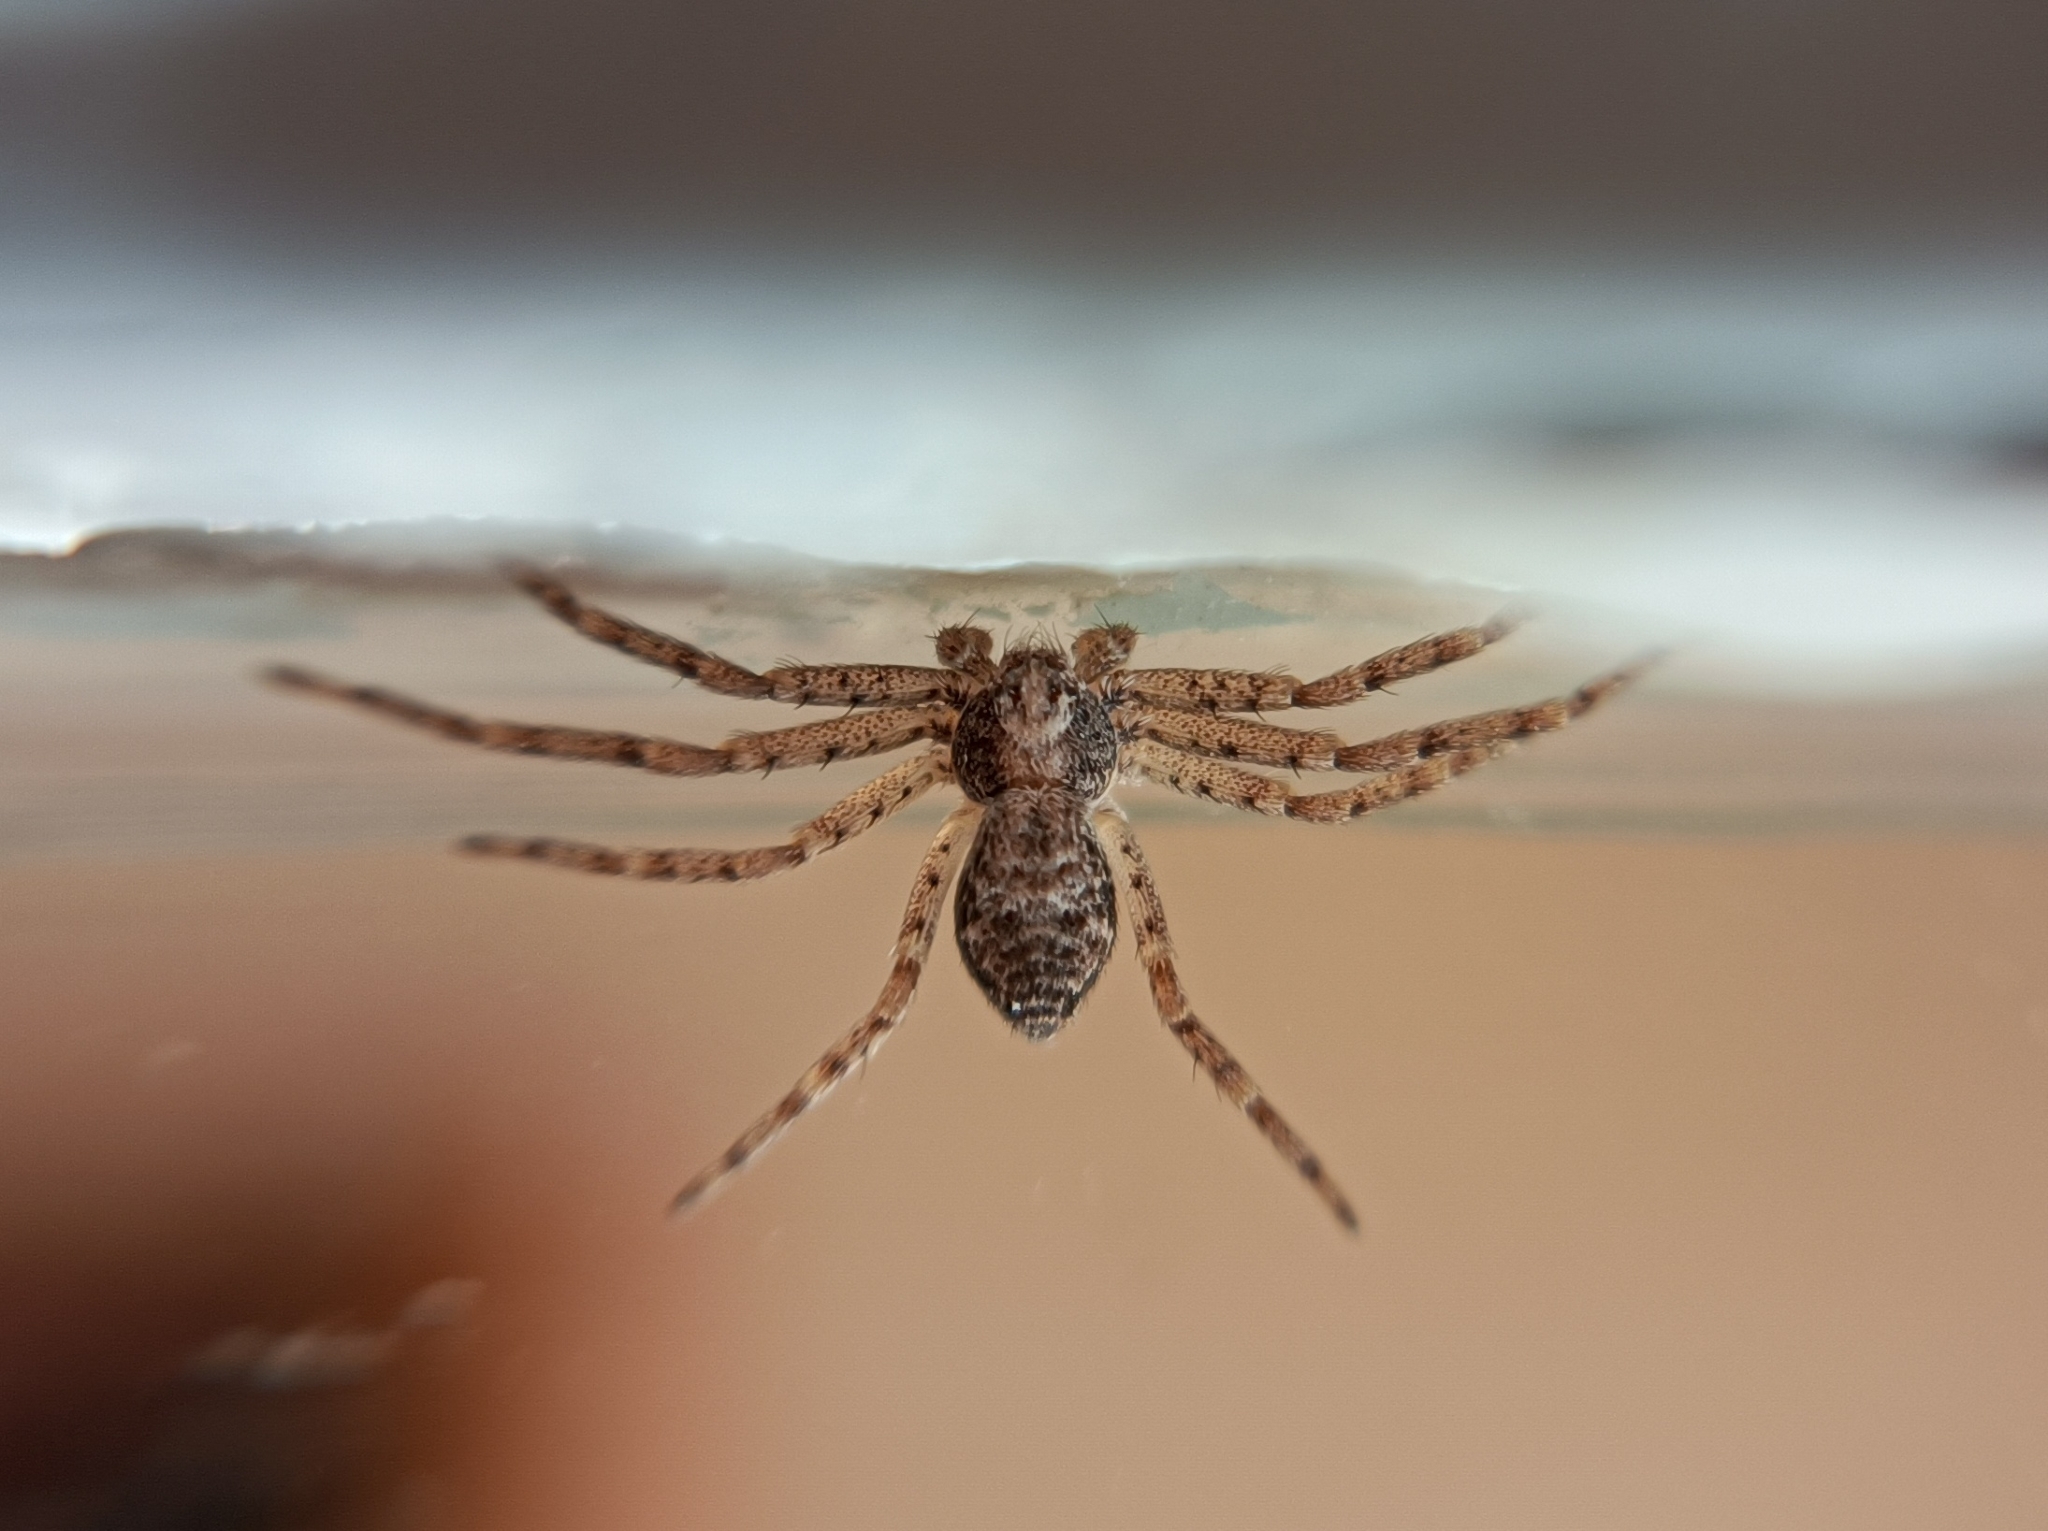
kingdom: Animalia
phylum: Arthropoda
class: Arachnida
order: Araneae
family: Philodromidae
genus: Philodromus
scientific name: Philodromus
